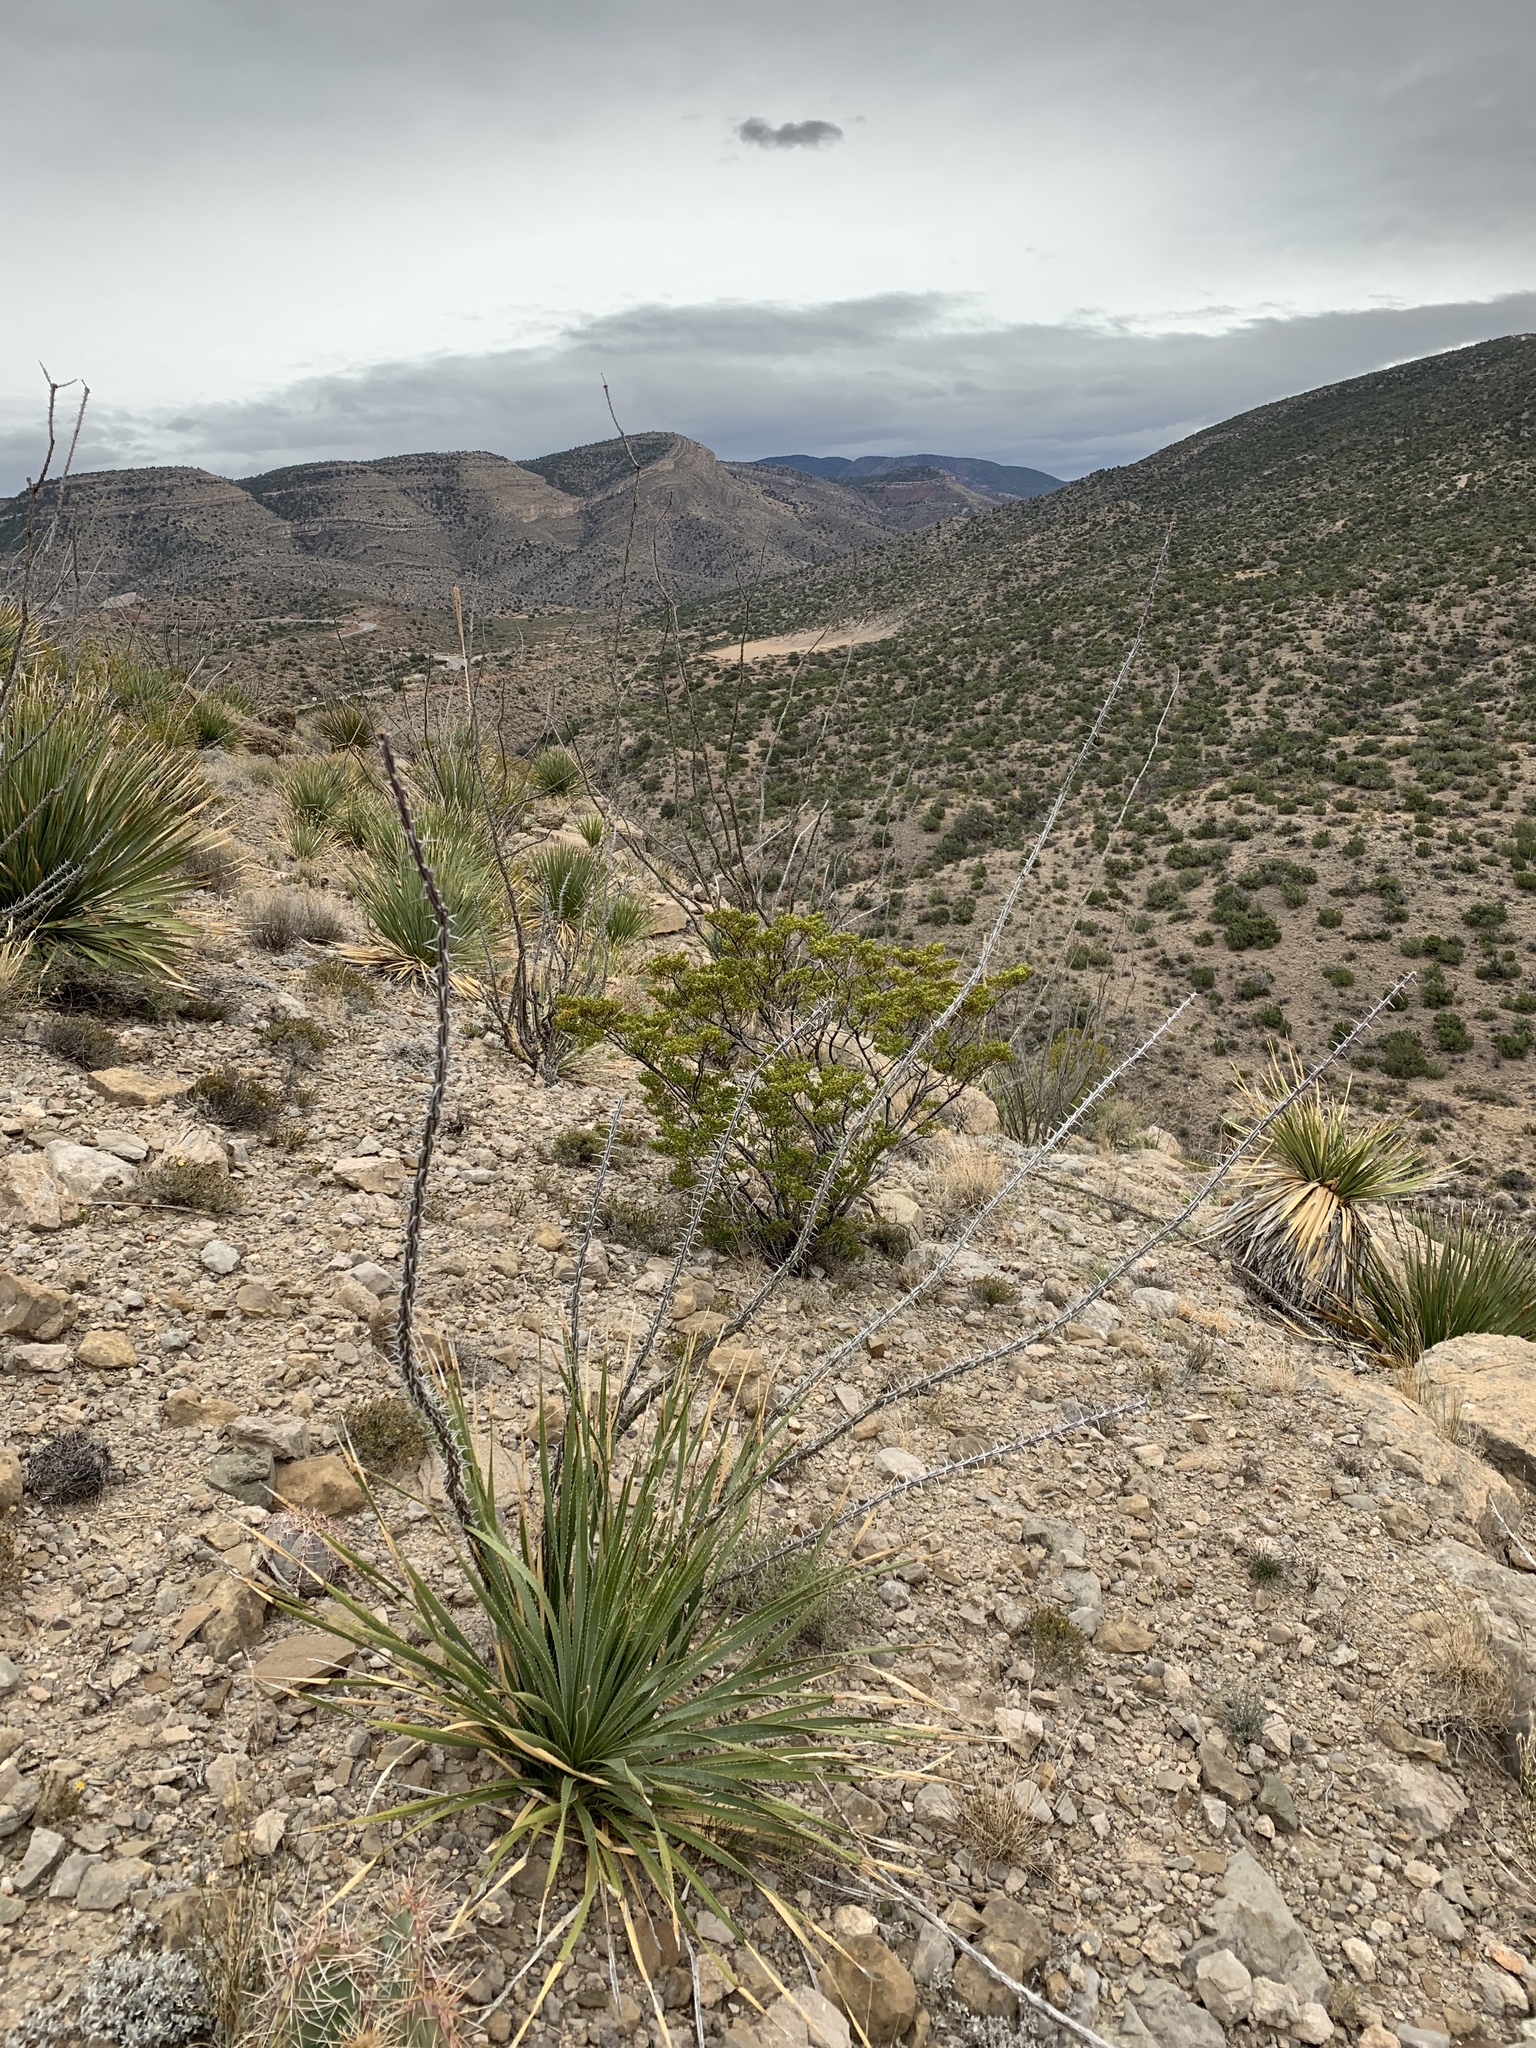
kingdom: Plantae
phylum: Tracheophyta
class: Magnoliopsida
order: Ericales
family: Fouquieriaceae
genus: Fouquieria
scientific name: Fouquieria splendens
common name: Vine-cactus
